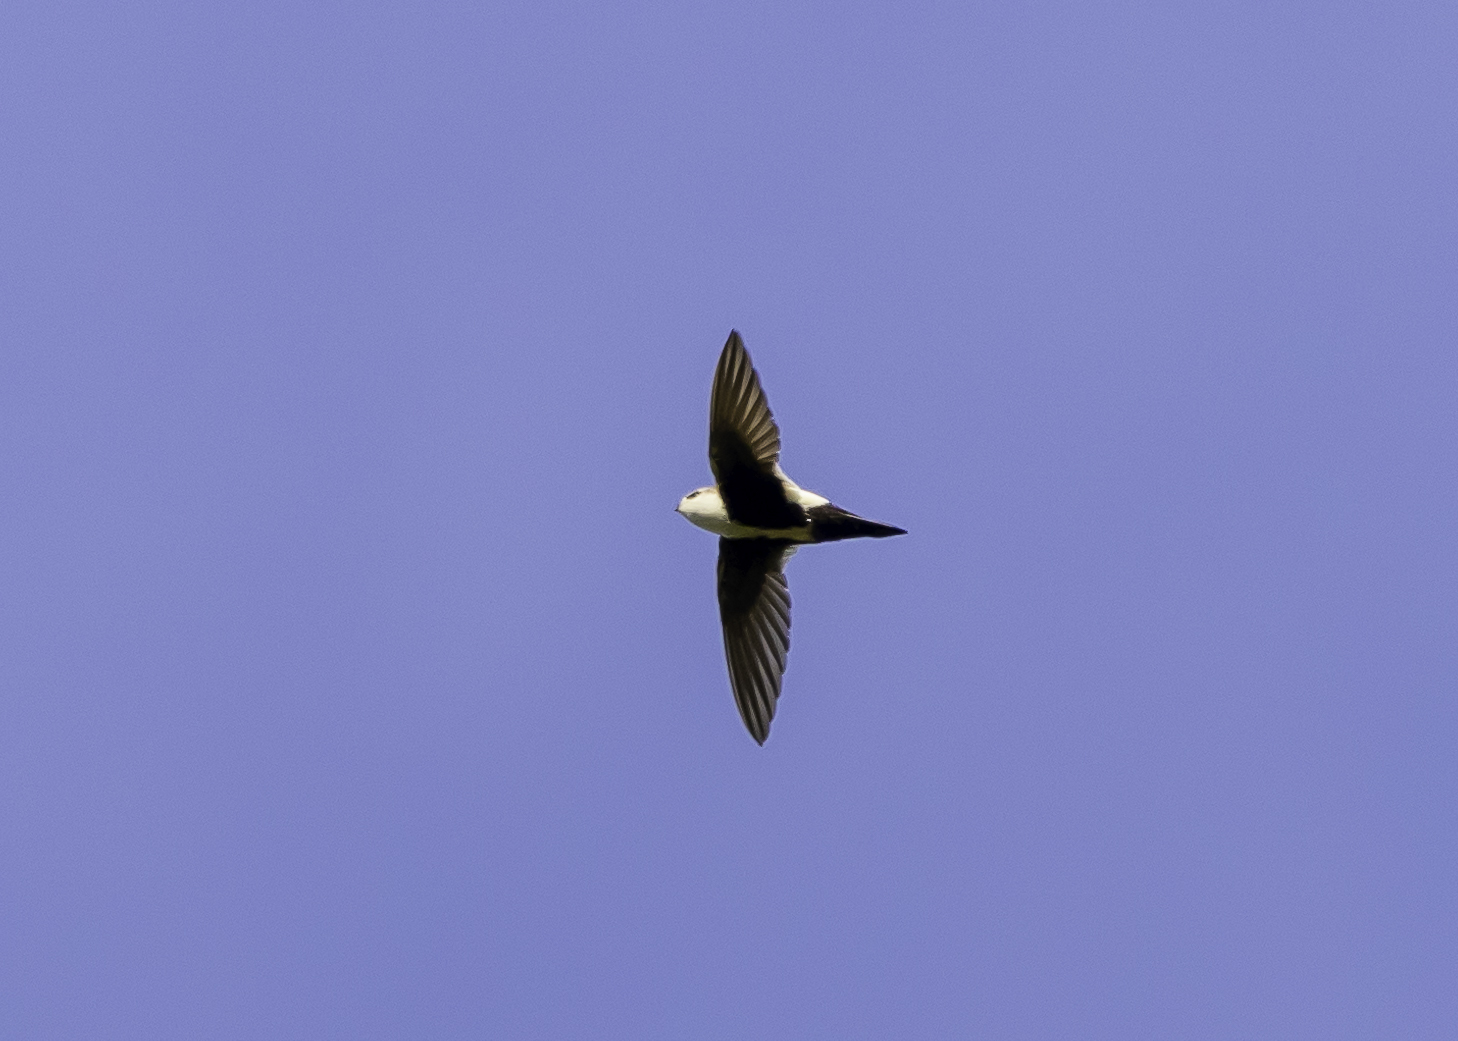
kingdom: Animalia
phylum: Chordata
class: Aves
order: Apodiformes
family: Apodidae
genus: Aeronautes
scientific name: Aeronautes saxatalis
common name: White-throated swift
